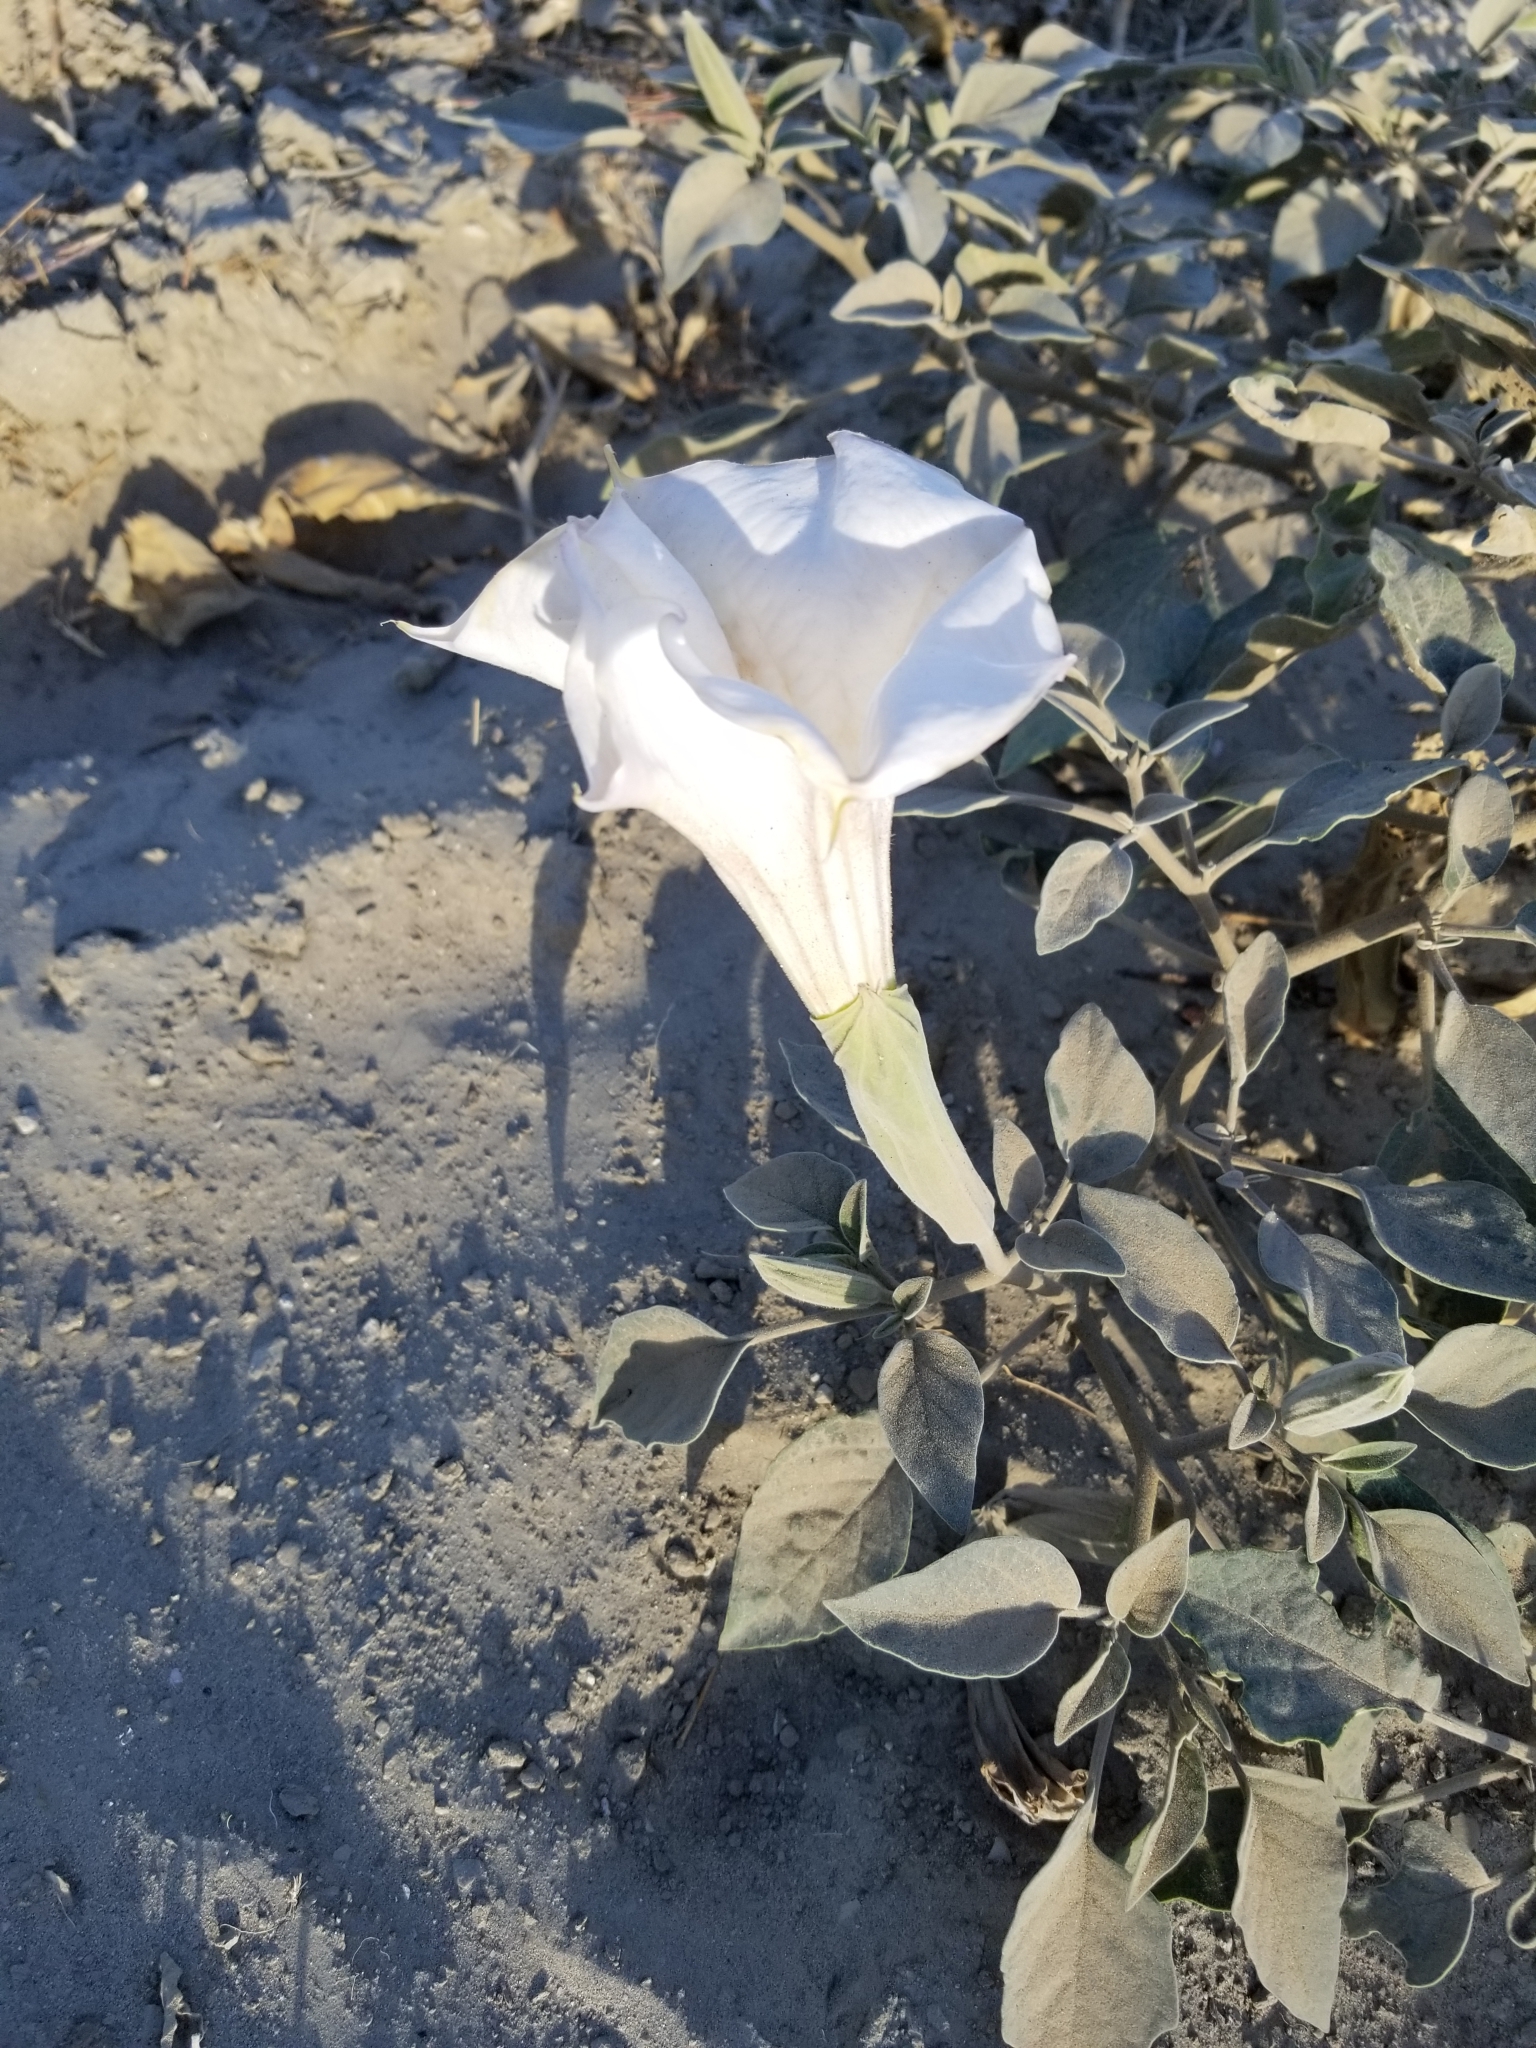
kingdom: Plantae
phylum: Tracheophyta
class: Magnoliopsida
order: Solanales
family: Solanaceae
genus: Datura
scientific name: Datura wrightii
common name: Sacred thorn-apple
